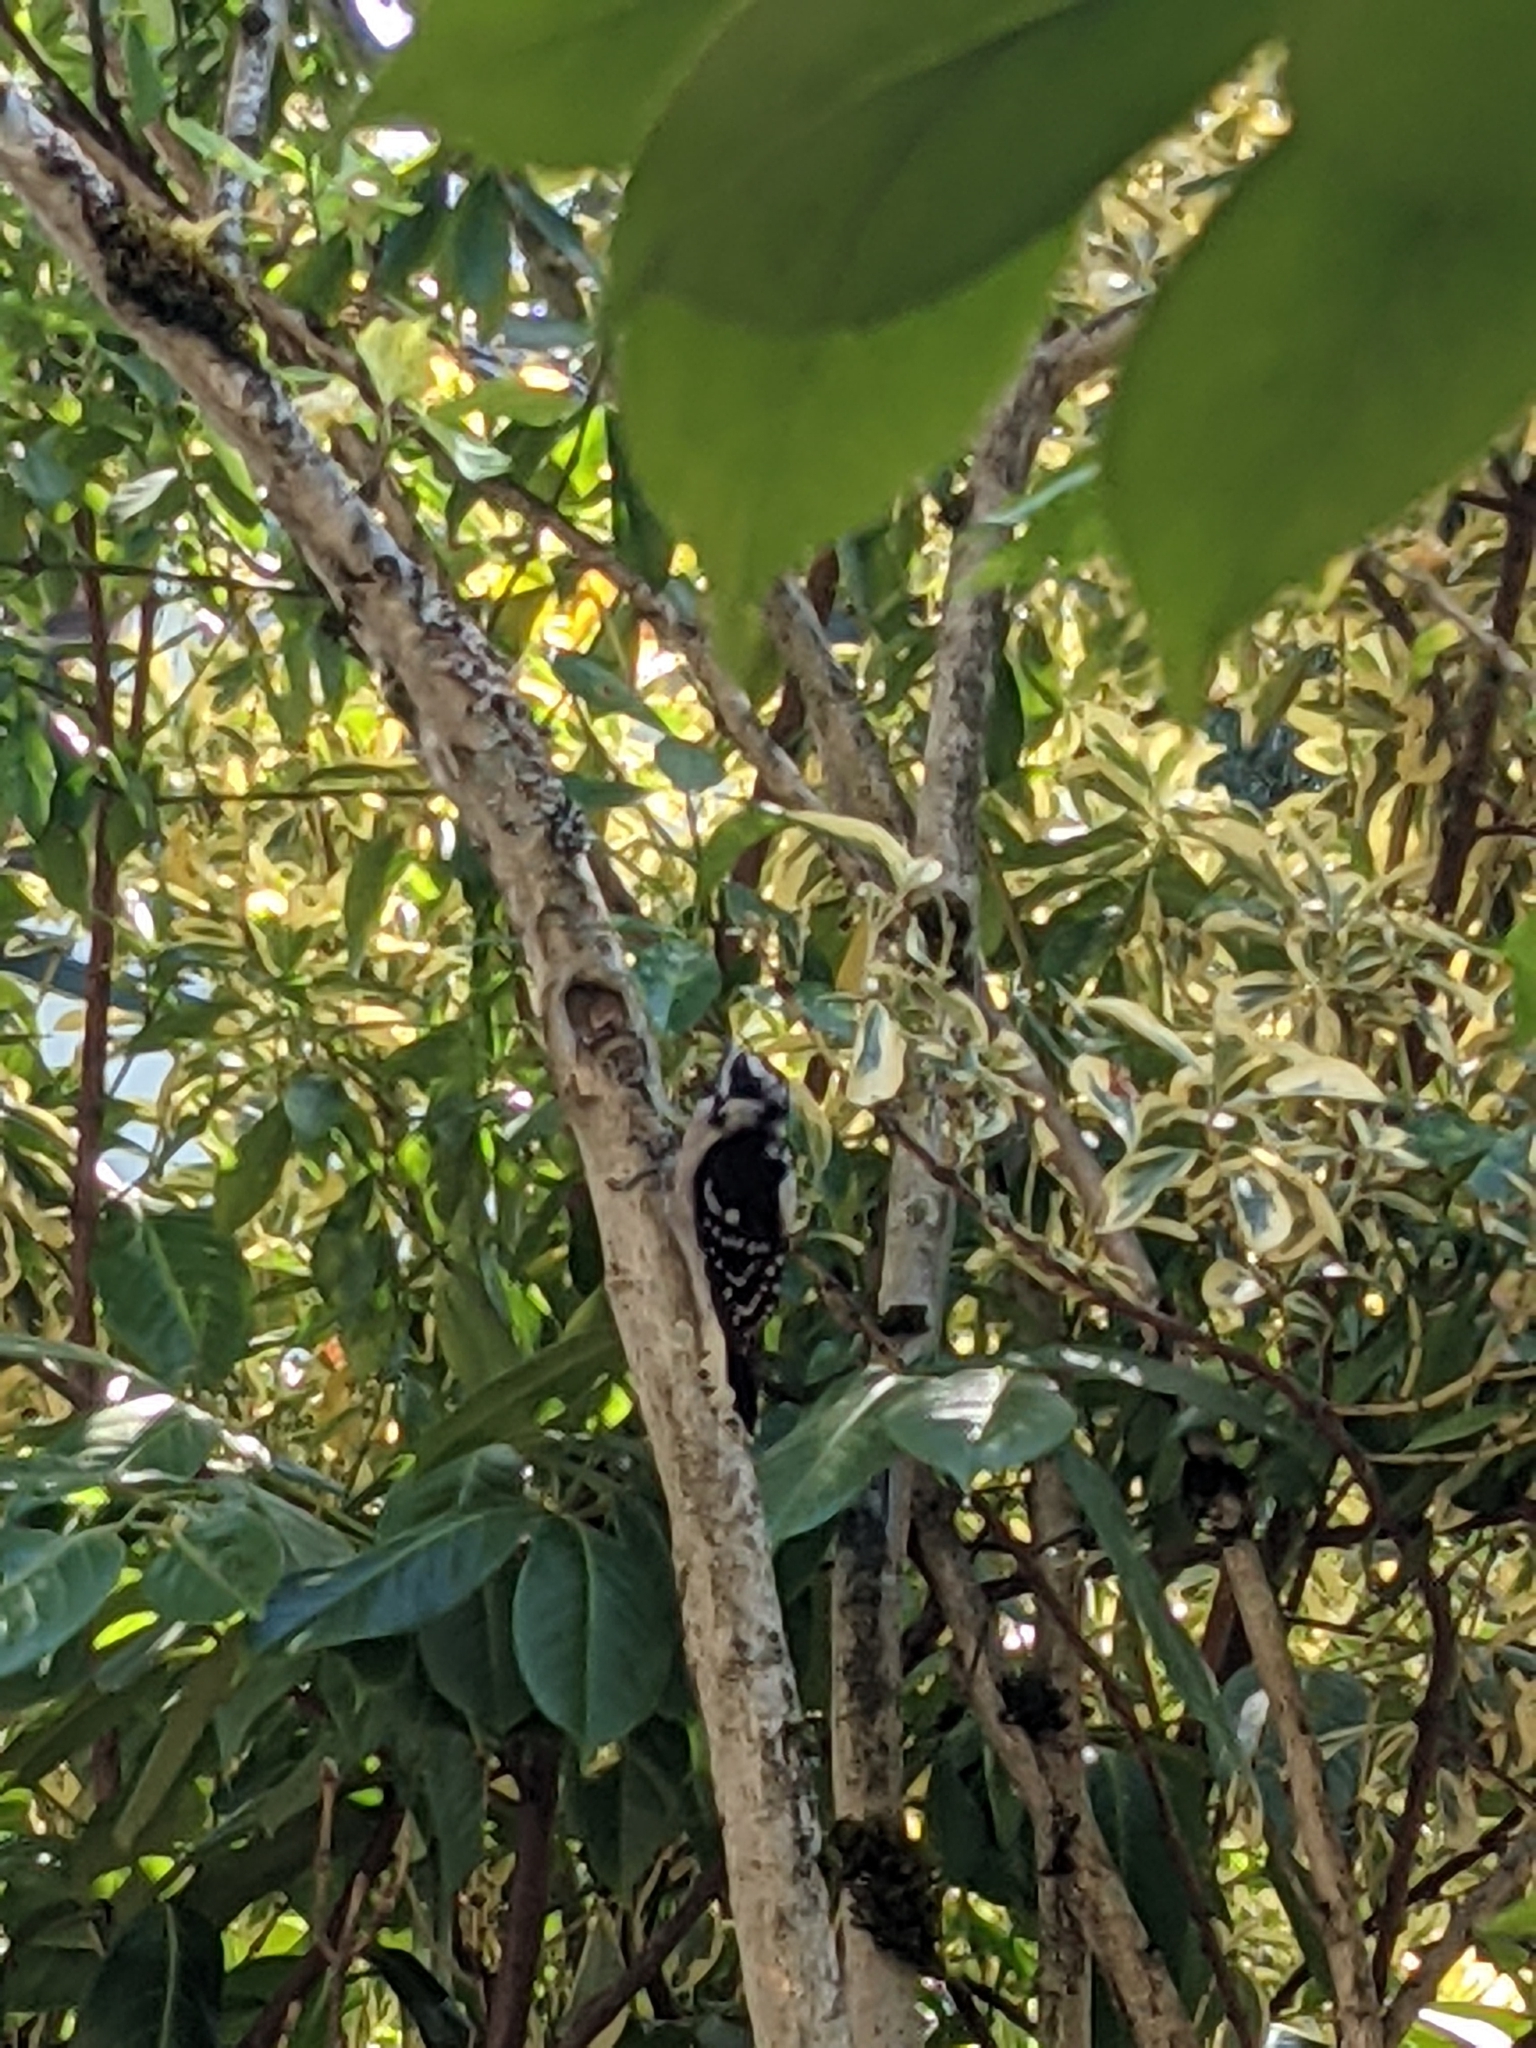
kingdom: Animalia
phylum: Chordata
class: Aves
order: Piciformes
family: Picidae
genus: Dryobates
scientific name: Dryobates pubescens
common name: Downy woodpecker
